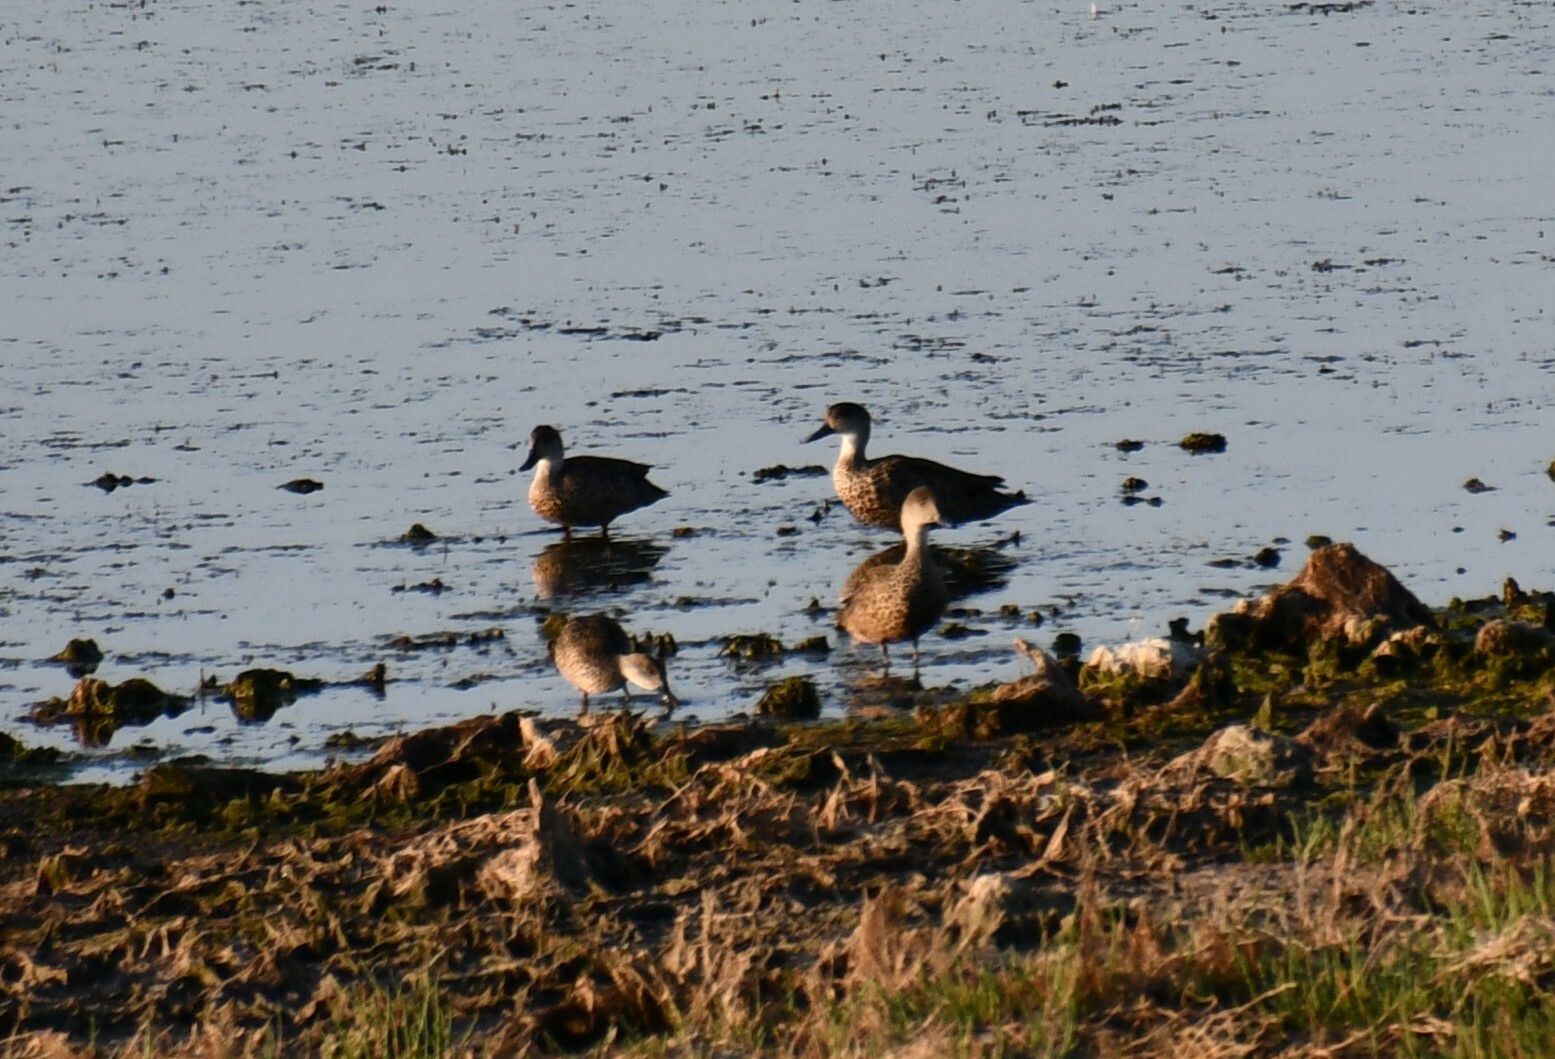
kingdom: Animalia
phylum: Chordata
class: Aves
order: Anseriformes
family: Anatidae
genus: Anas
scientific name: Anas gracilis
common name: Grey teal
